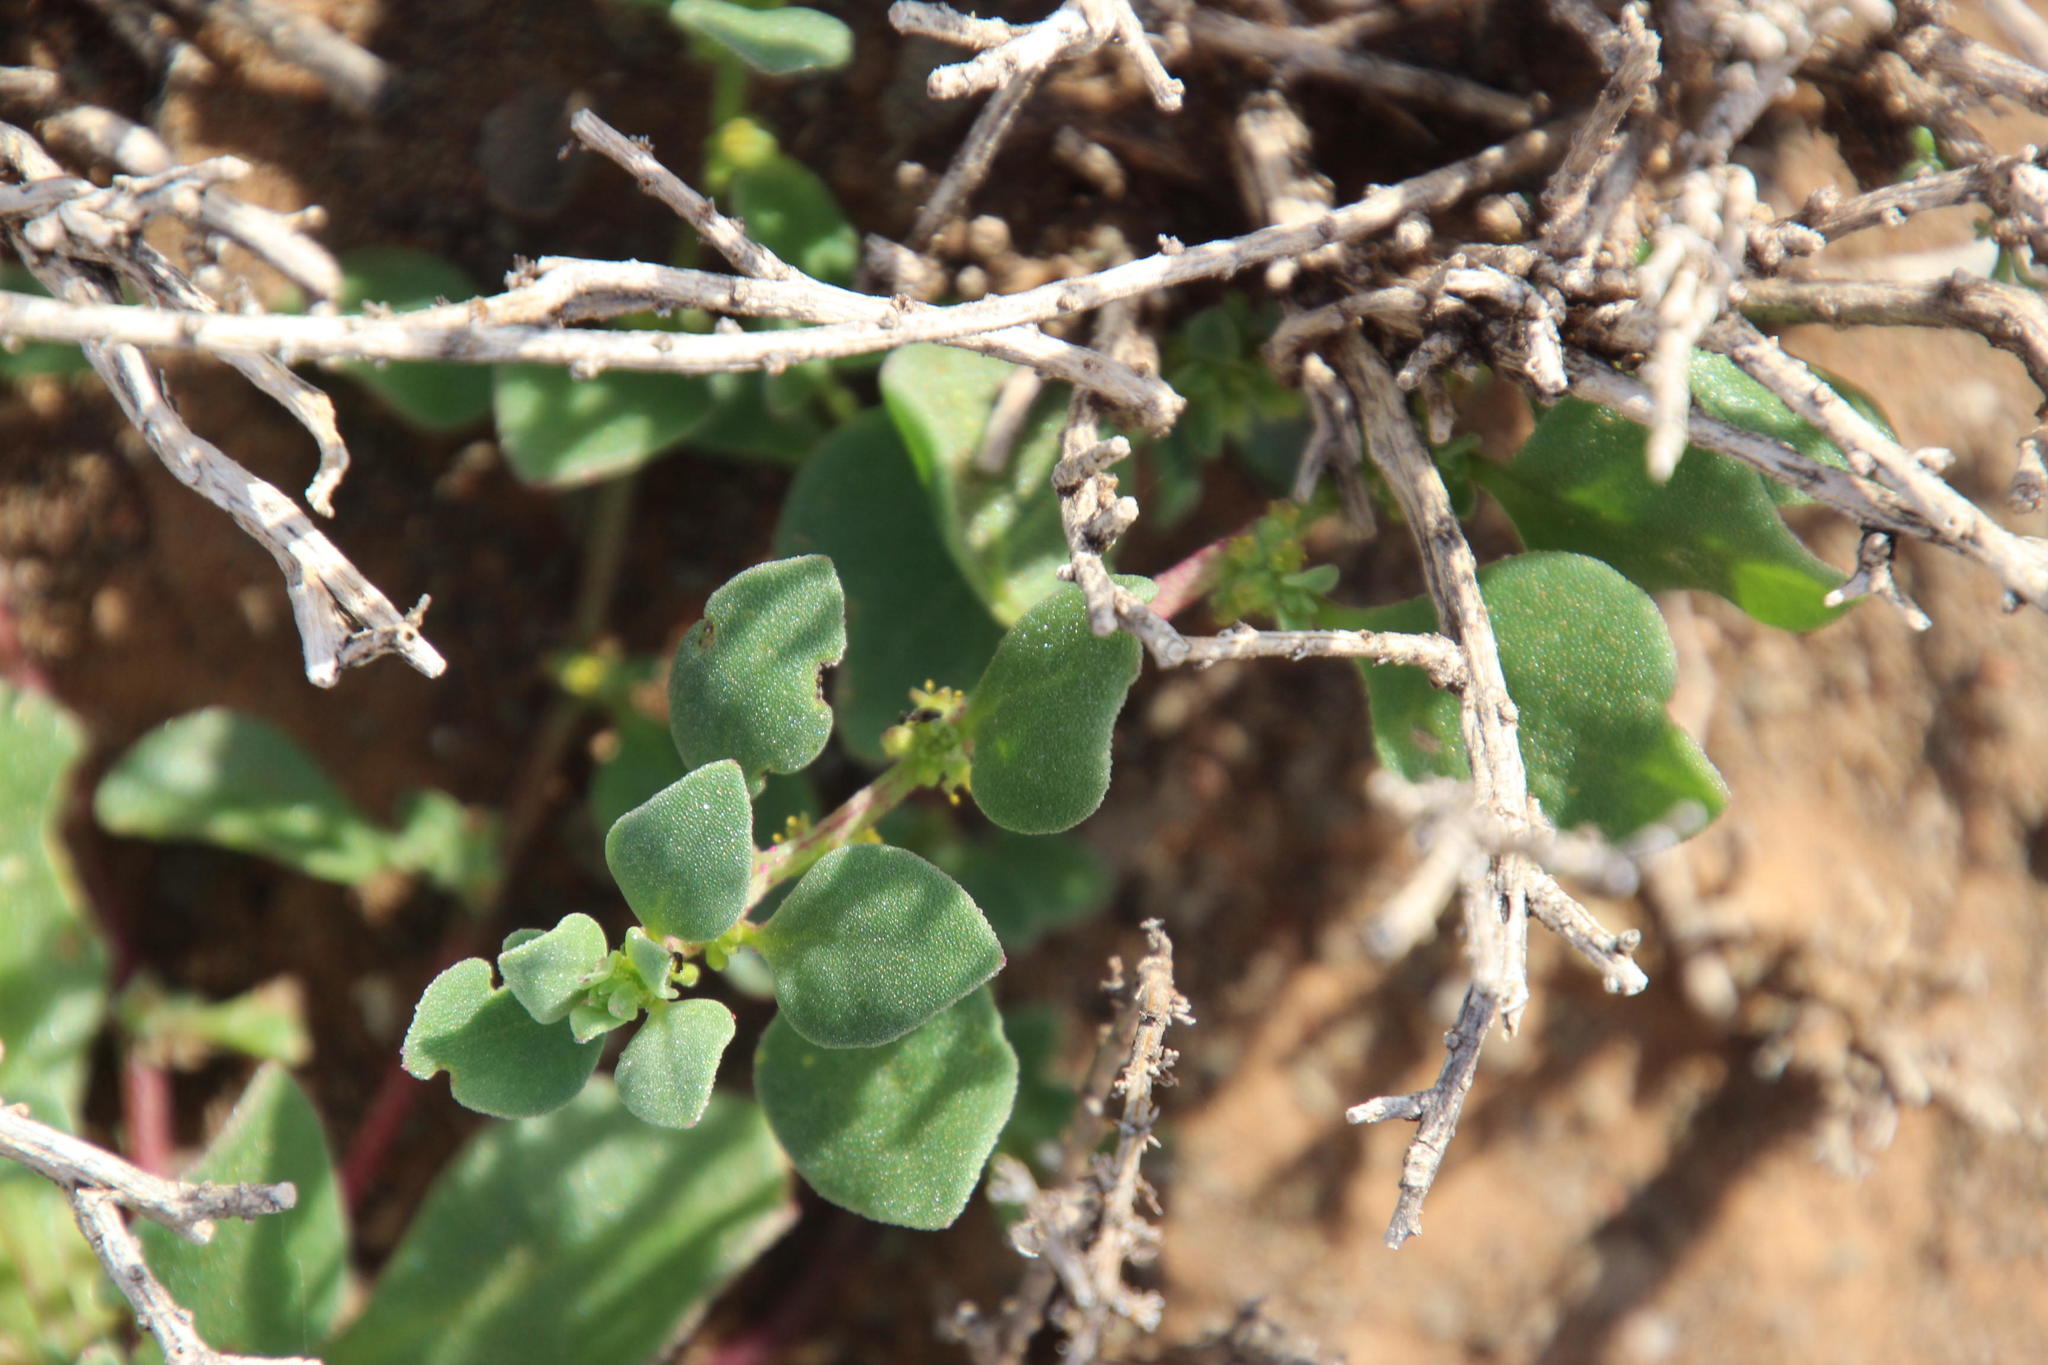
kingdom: Plantae
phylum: Tracheophyta
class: Magnoliopsida
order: Caryophyllales
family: Aizoaceae
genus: Tetragonia
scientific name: Tetragonia echinata
